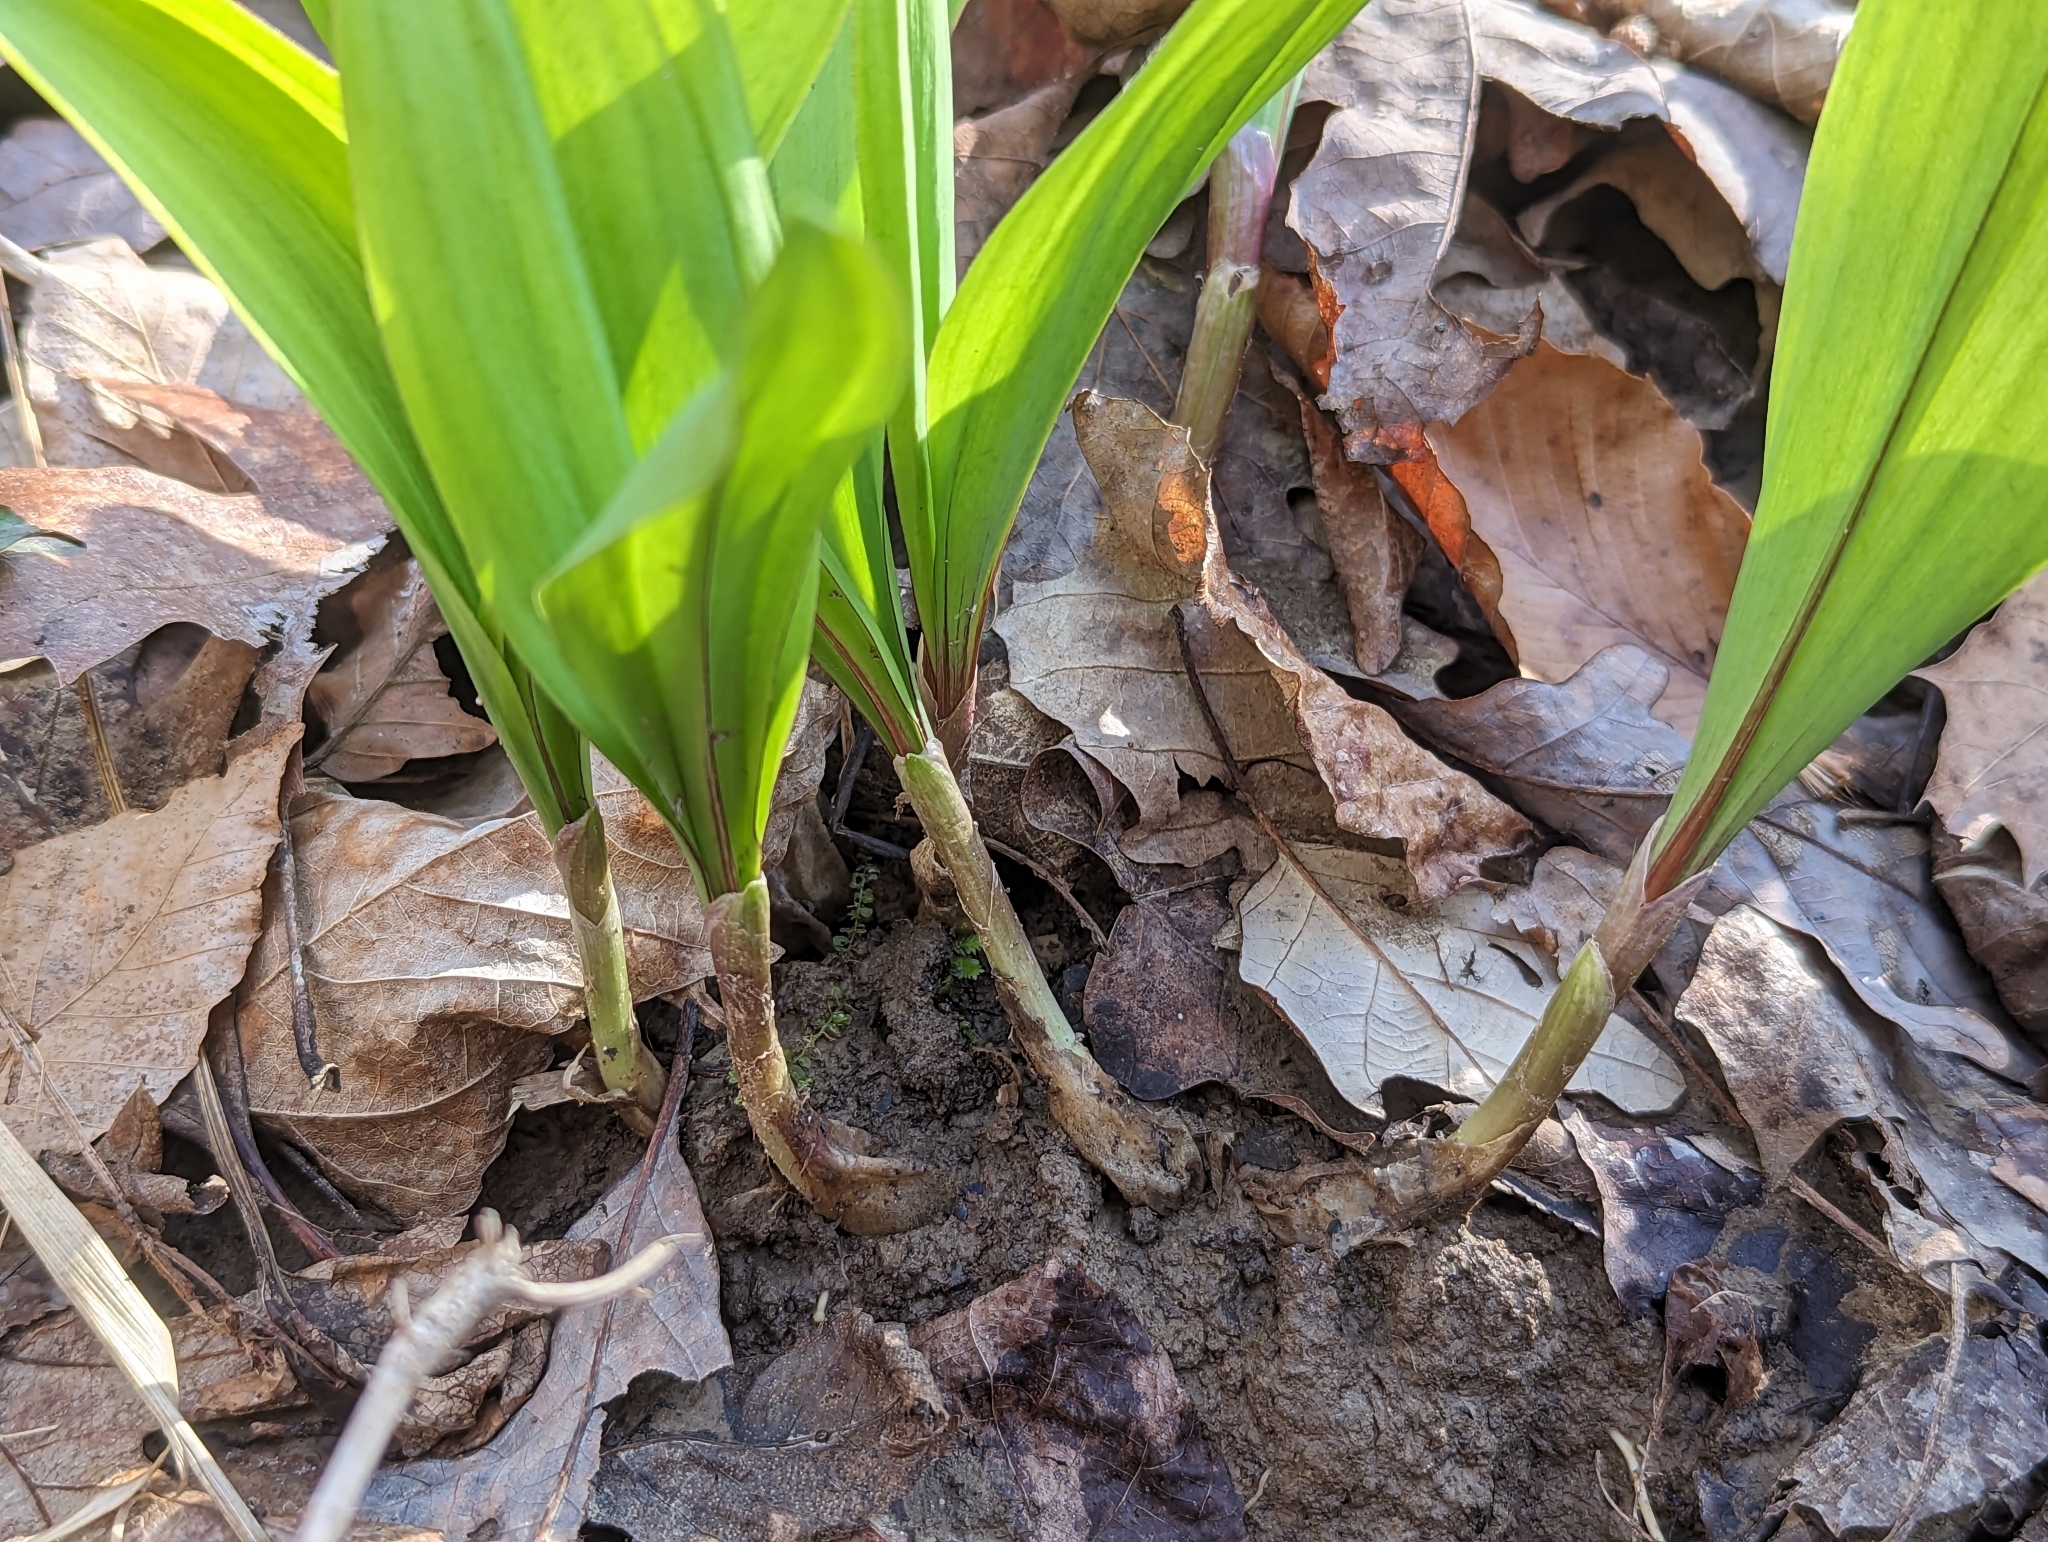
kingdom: Plantae
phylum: Tracheophyta
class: Liliopsida
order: Asparagales
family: Amaryllidaceae
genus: Allium
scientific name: Allium tricoccum
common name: Ramp
